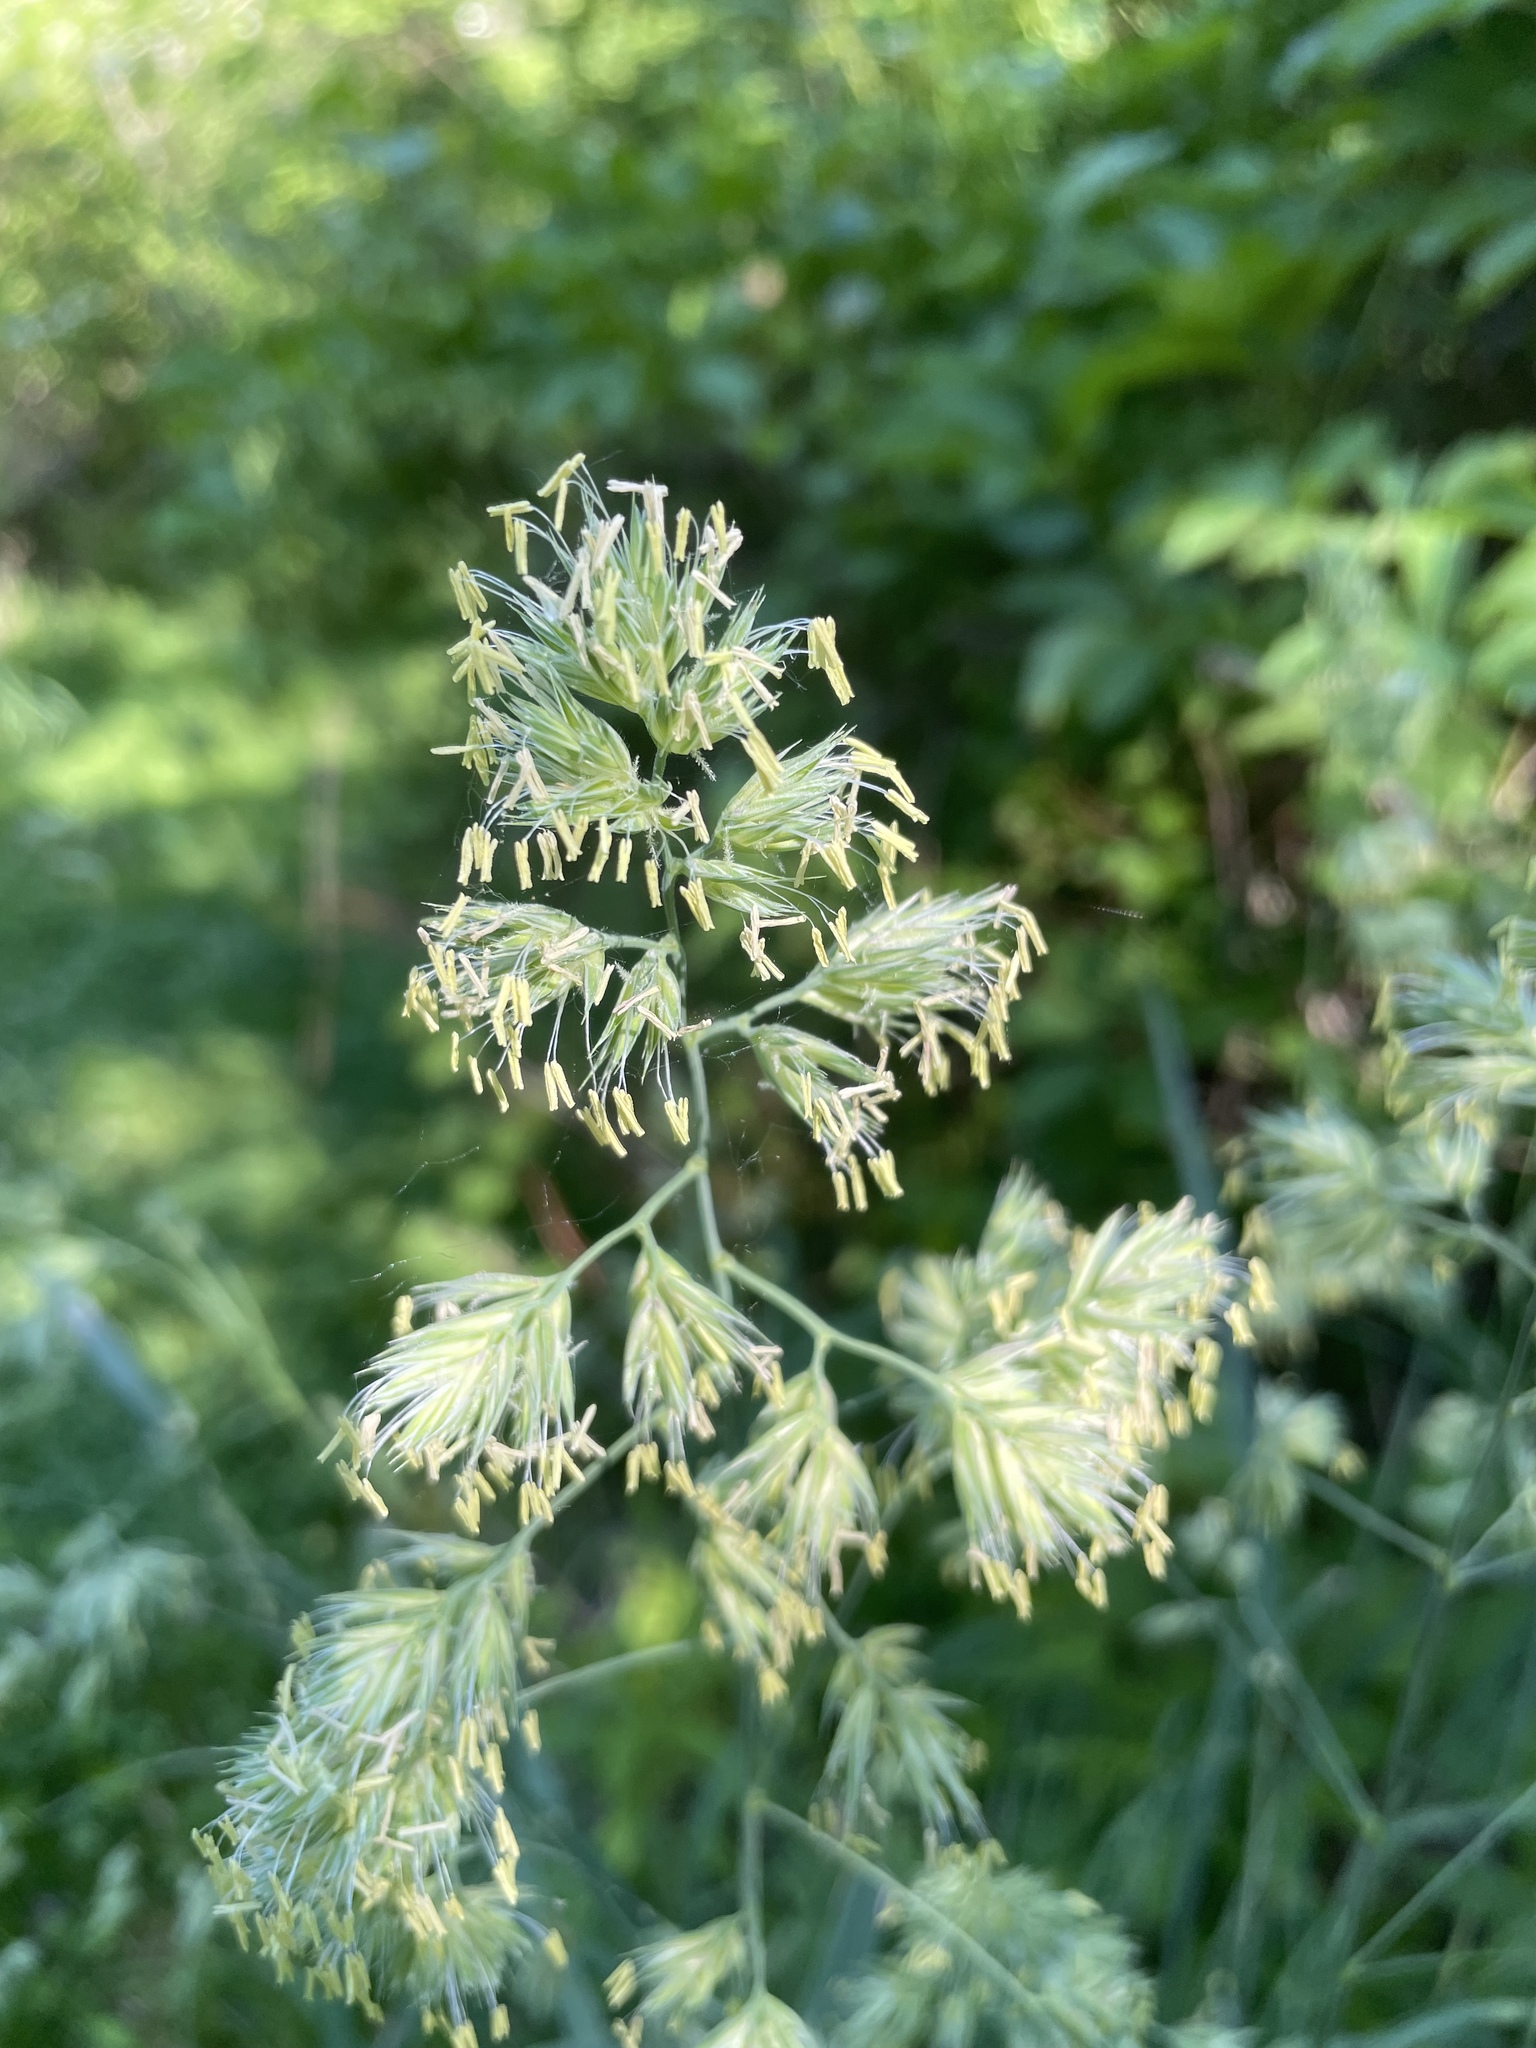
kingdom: Plantae
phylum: Tracheophyta
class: Liliopsida
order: Poales
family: Poaceae
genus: Dactylis
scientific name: Dactylis glomerata
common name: Orchardgrass
